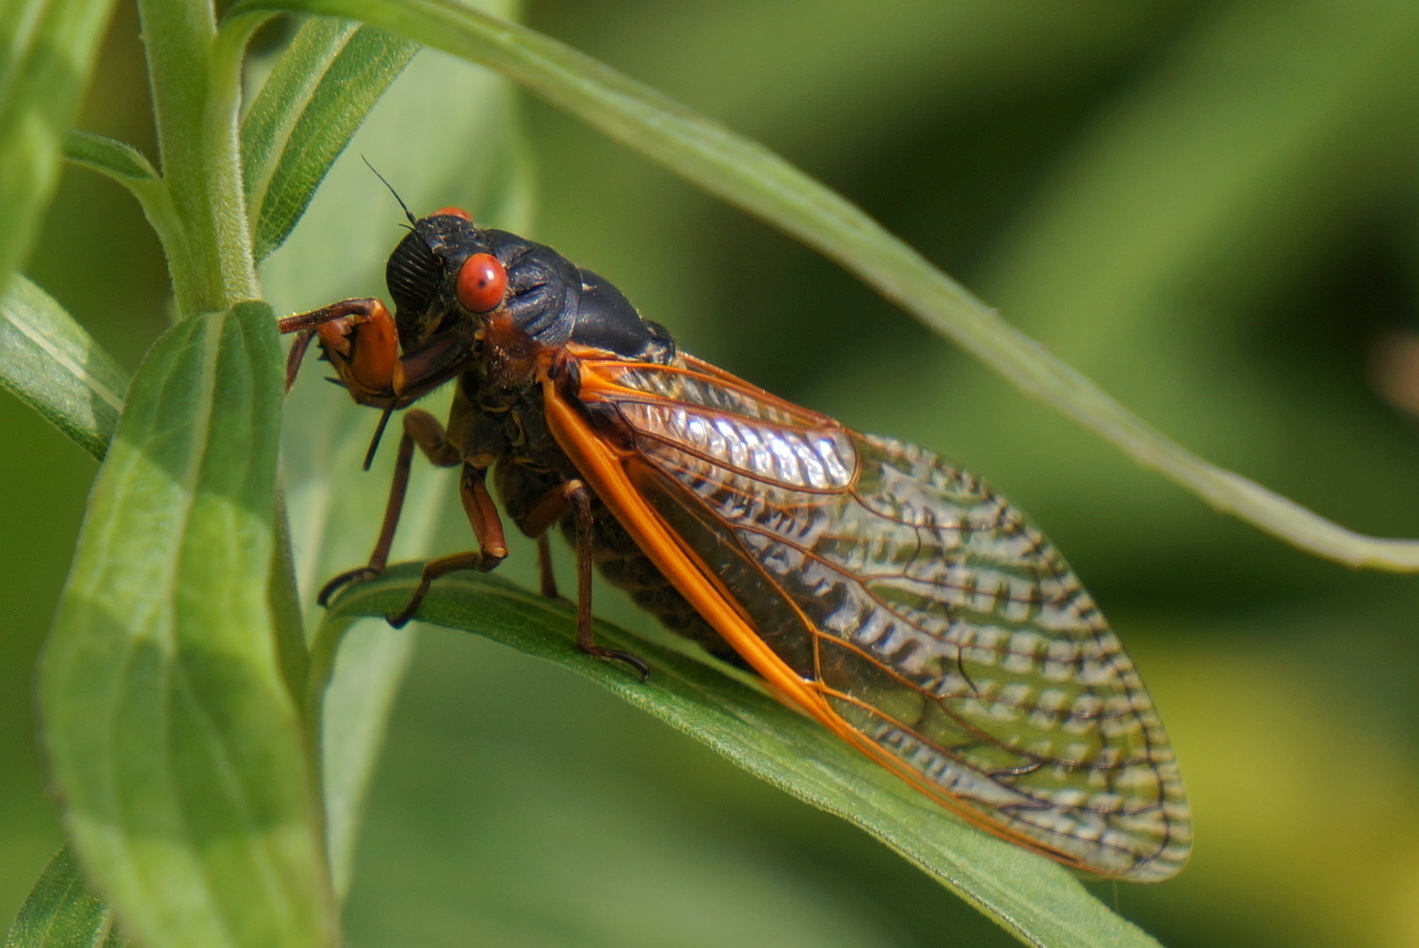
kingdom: Animalia
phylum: Arthropoda
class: Insecta
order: Hemiptera
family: Cicadidae
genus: Magicicada
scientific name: Magicicada septendecim
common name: Periodical cicada
